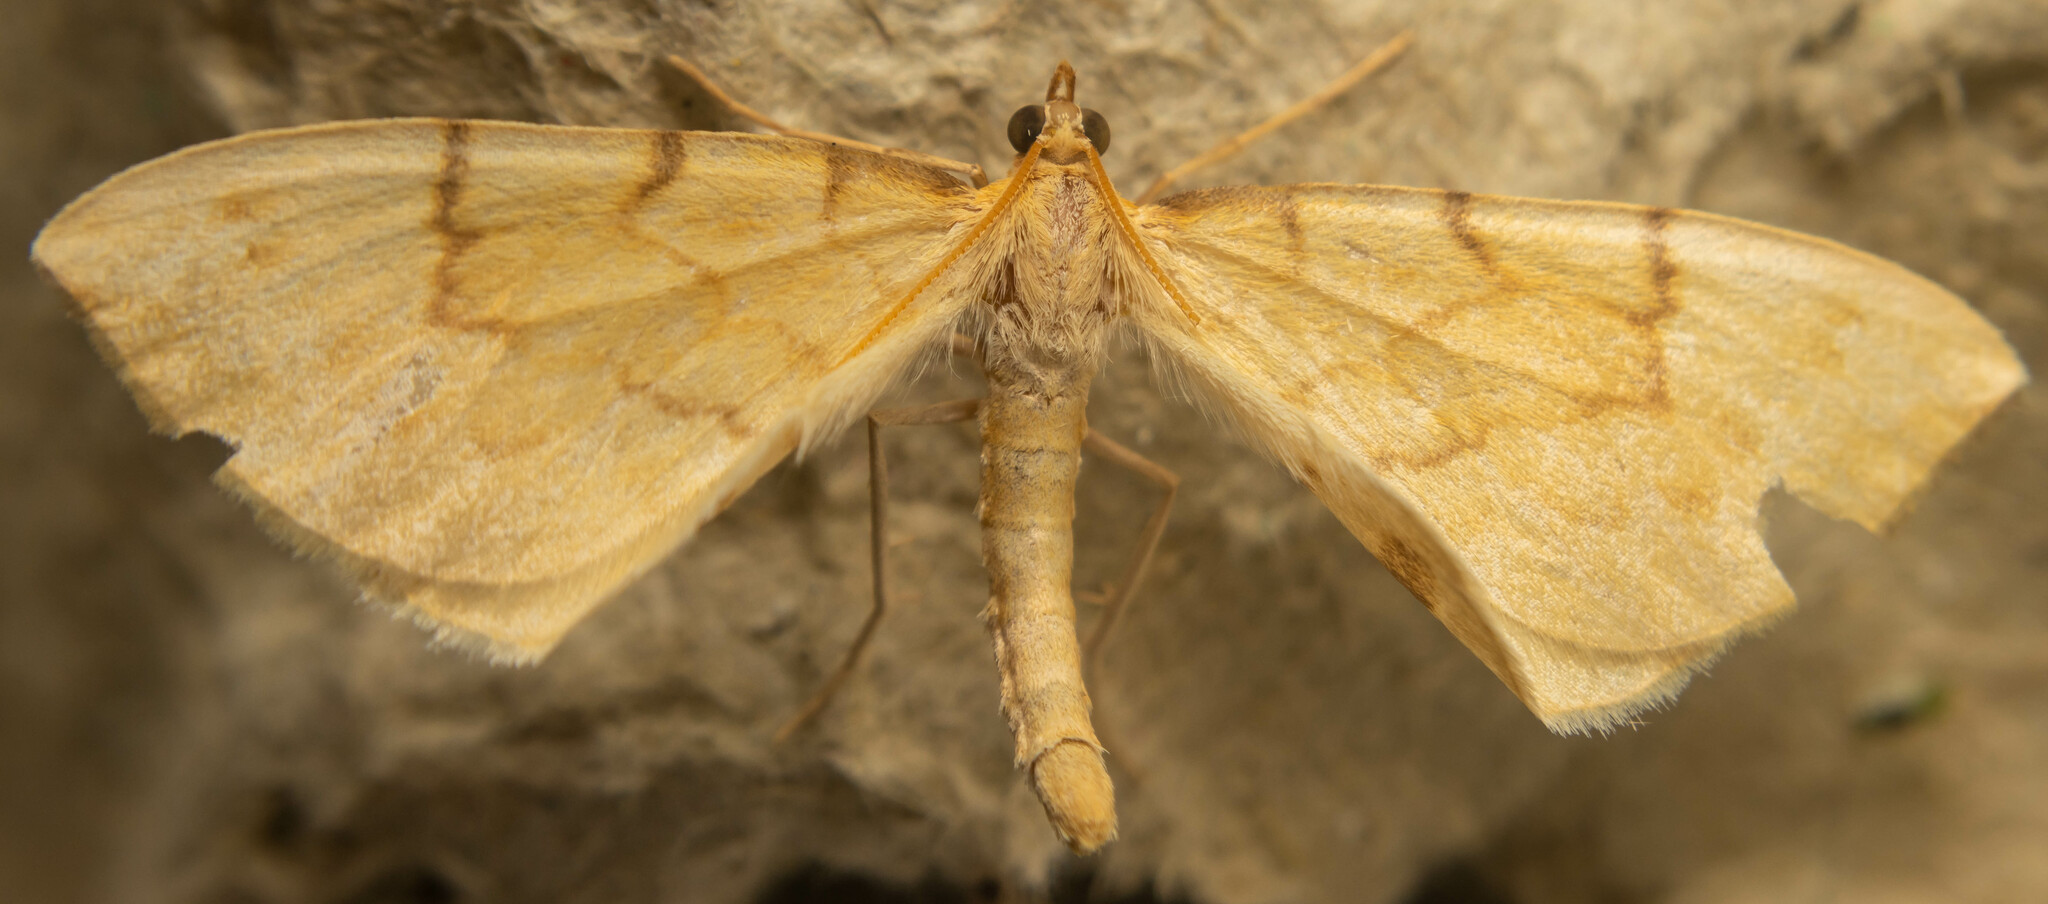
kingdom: Animalia
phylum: Arthropoda
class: Insecta
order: Lepidoptera
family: Geometridae
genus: Eulithis
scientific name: Eulithis pyraliata
